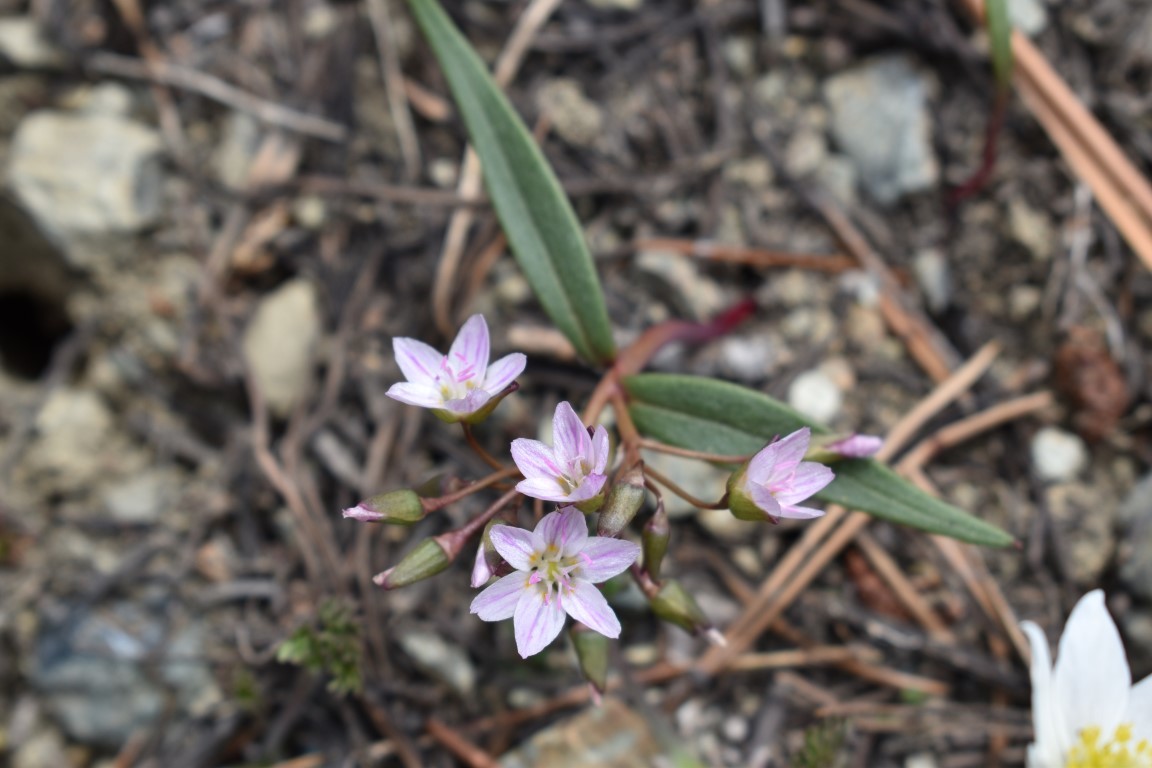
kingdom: Plantae
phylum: Tracheophyta
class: Magnoliopsida
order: Caryophyllales
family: Montiaceae
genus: Claytonia
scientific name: Claytonia serpenticola
